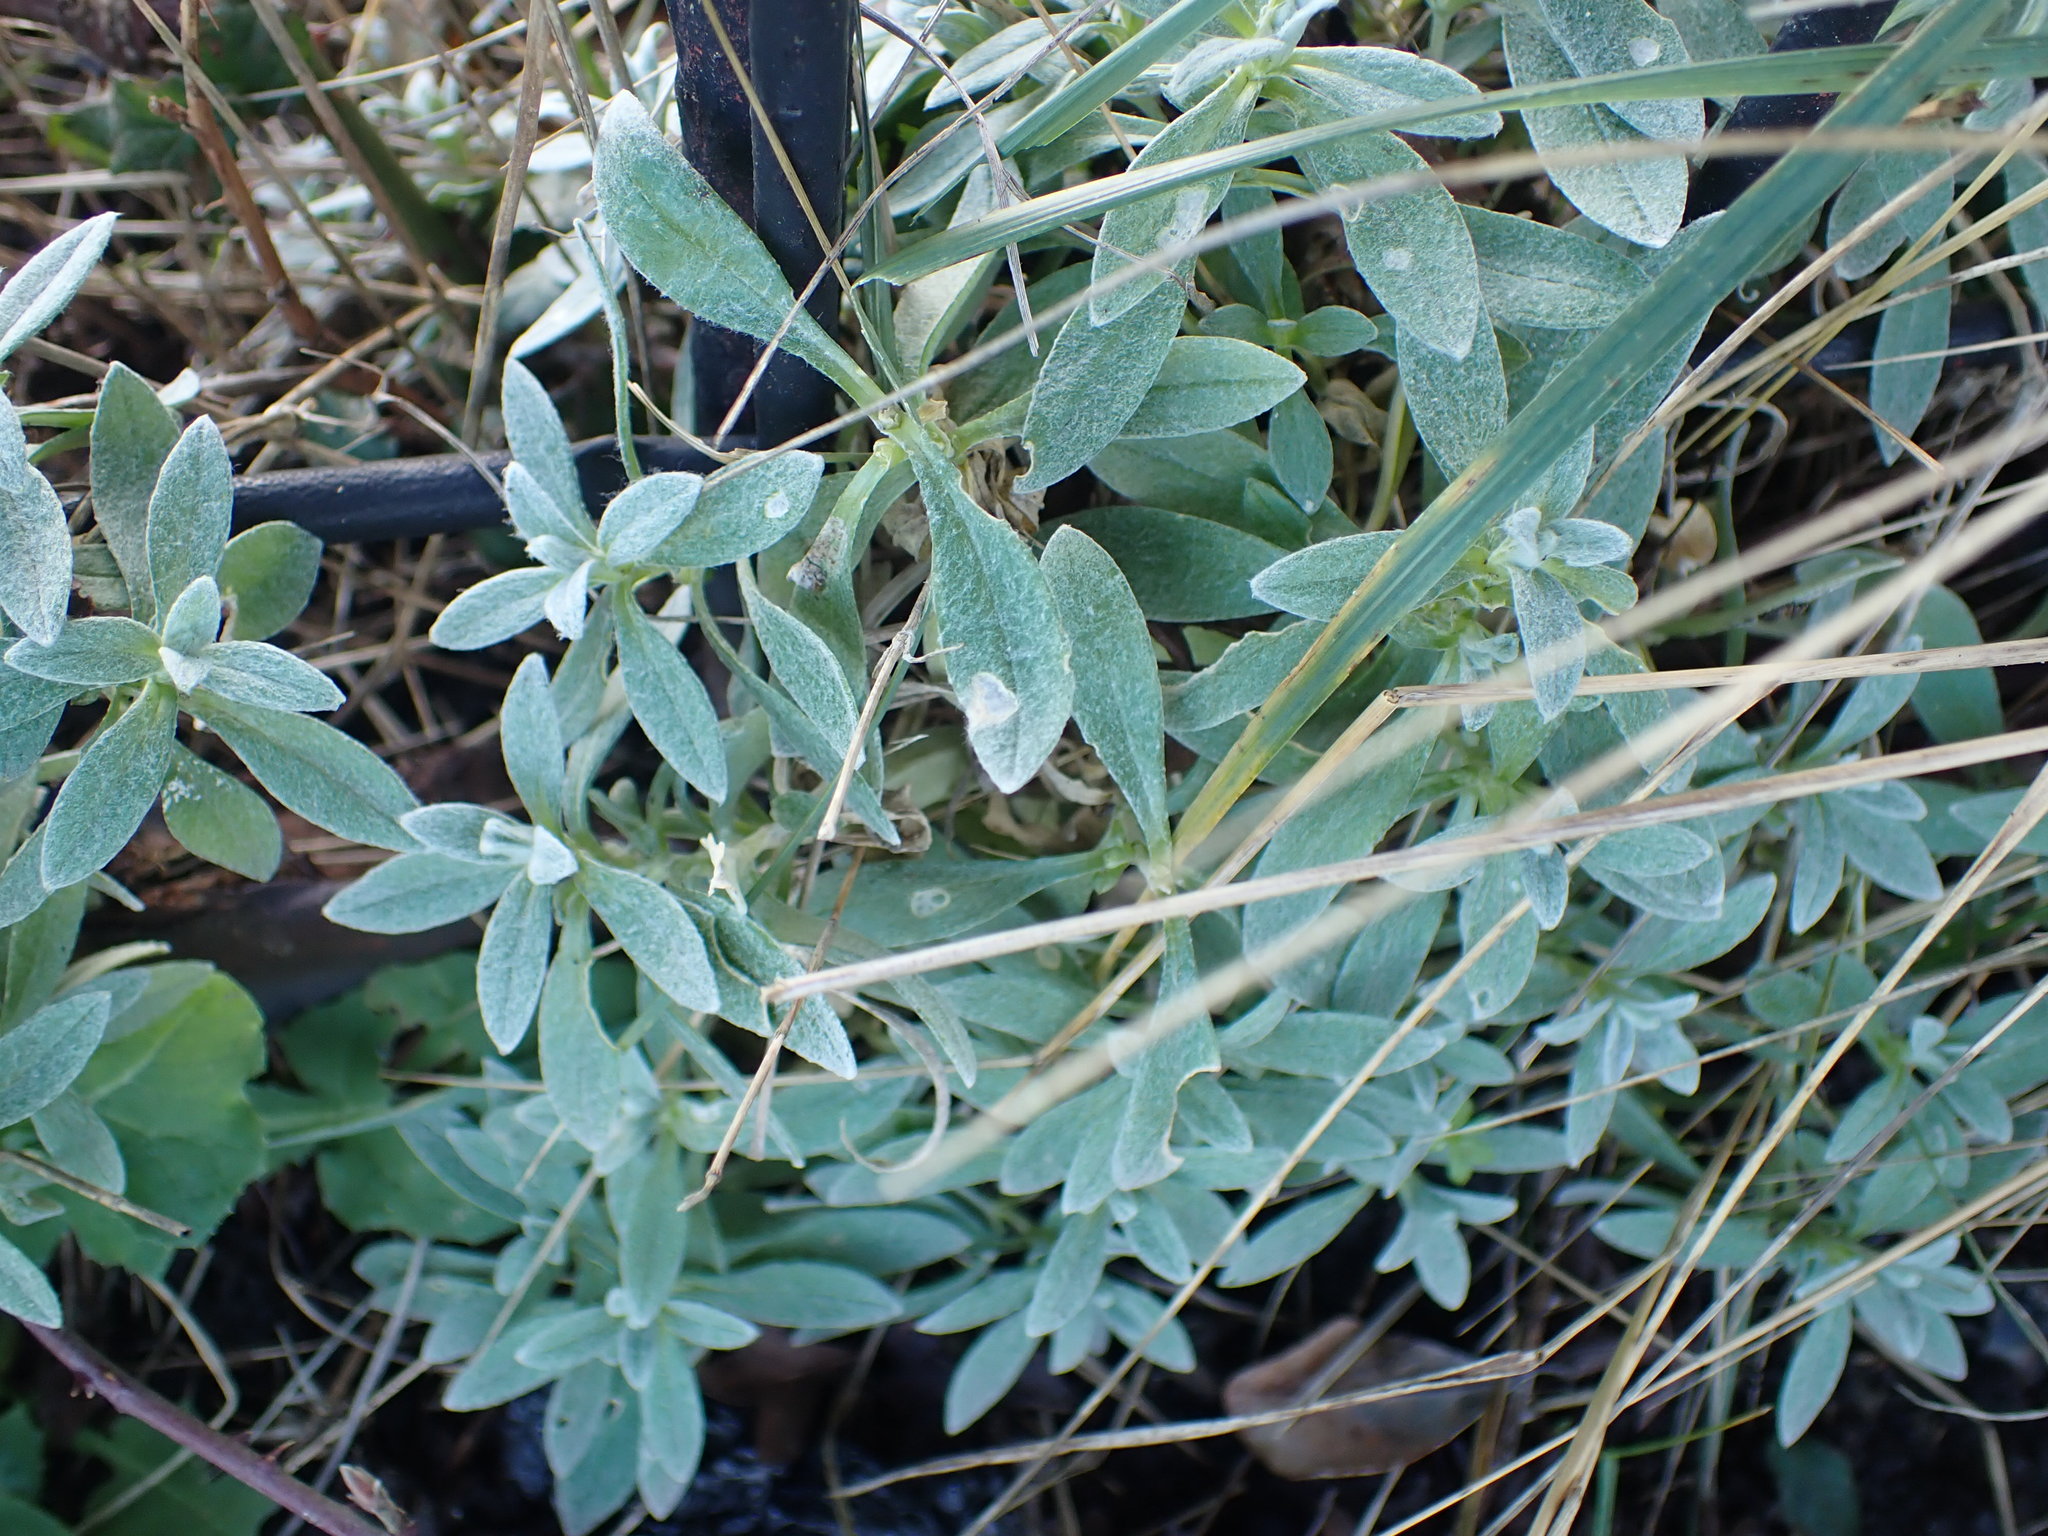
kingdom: Plantae
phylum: Tracheophyta
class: Magnoliopsida
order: Caryophyllales
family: Caryophyllaceae
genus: Cerastium
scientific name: Cerastium tomentosum
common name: Snow-in-summer
